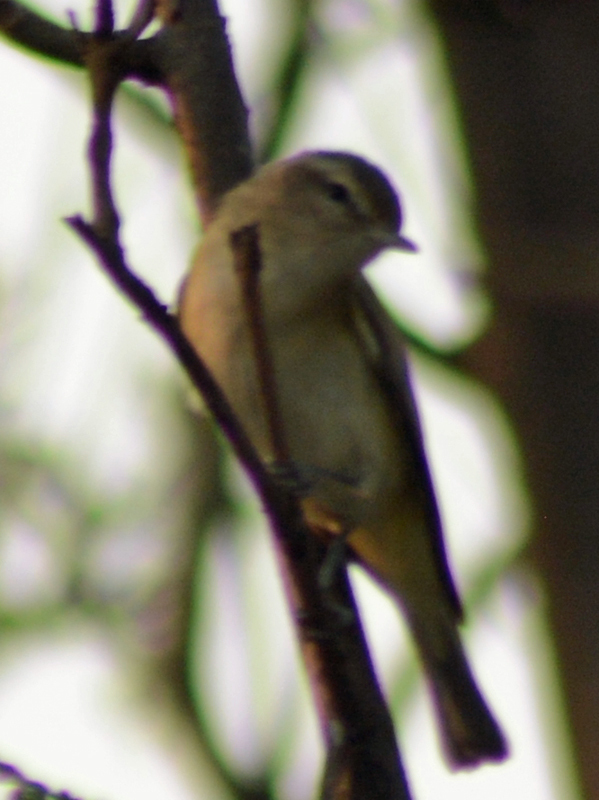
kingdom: Animalia
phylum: Chordata
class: Aves
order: Passeriformes
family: Vireonidae
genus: Vireo
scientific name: Vireo gilvus
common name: Warbling vireo
